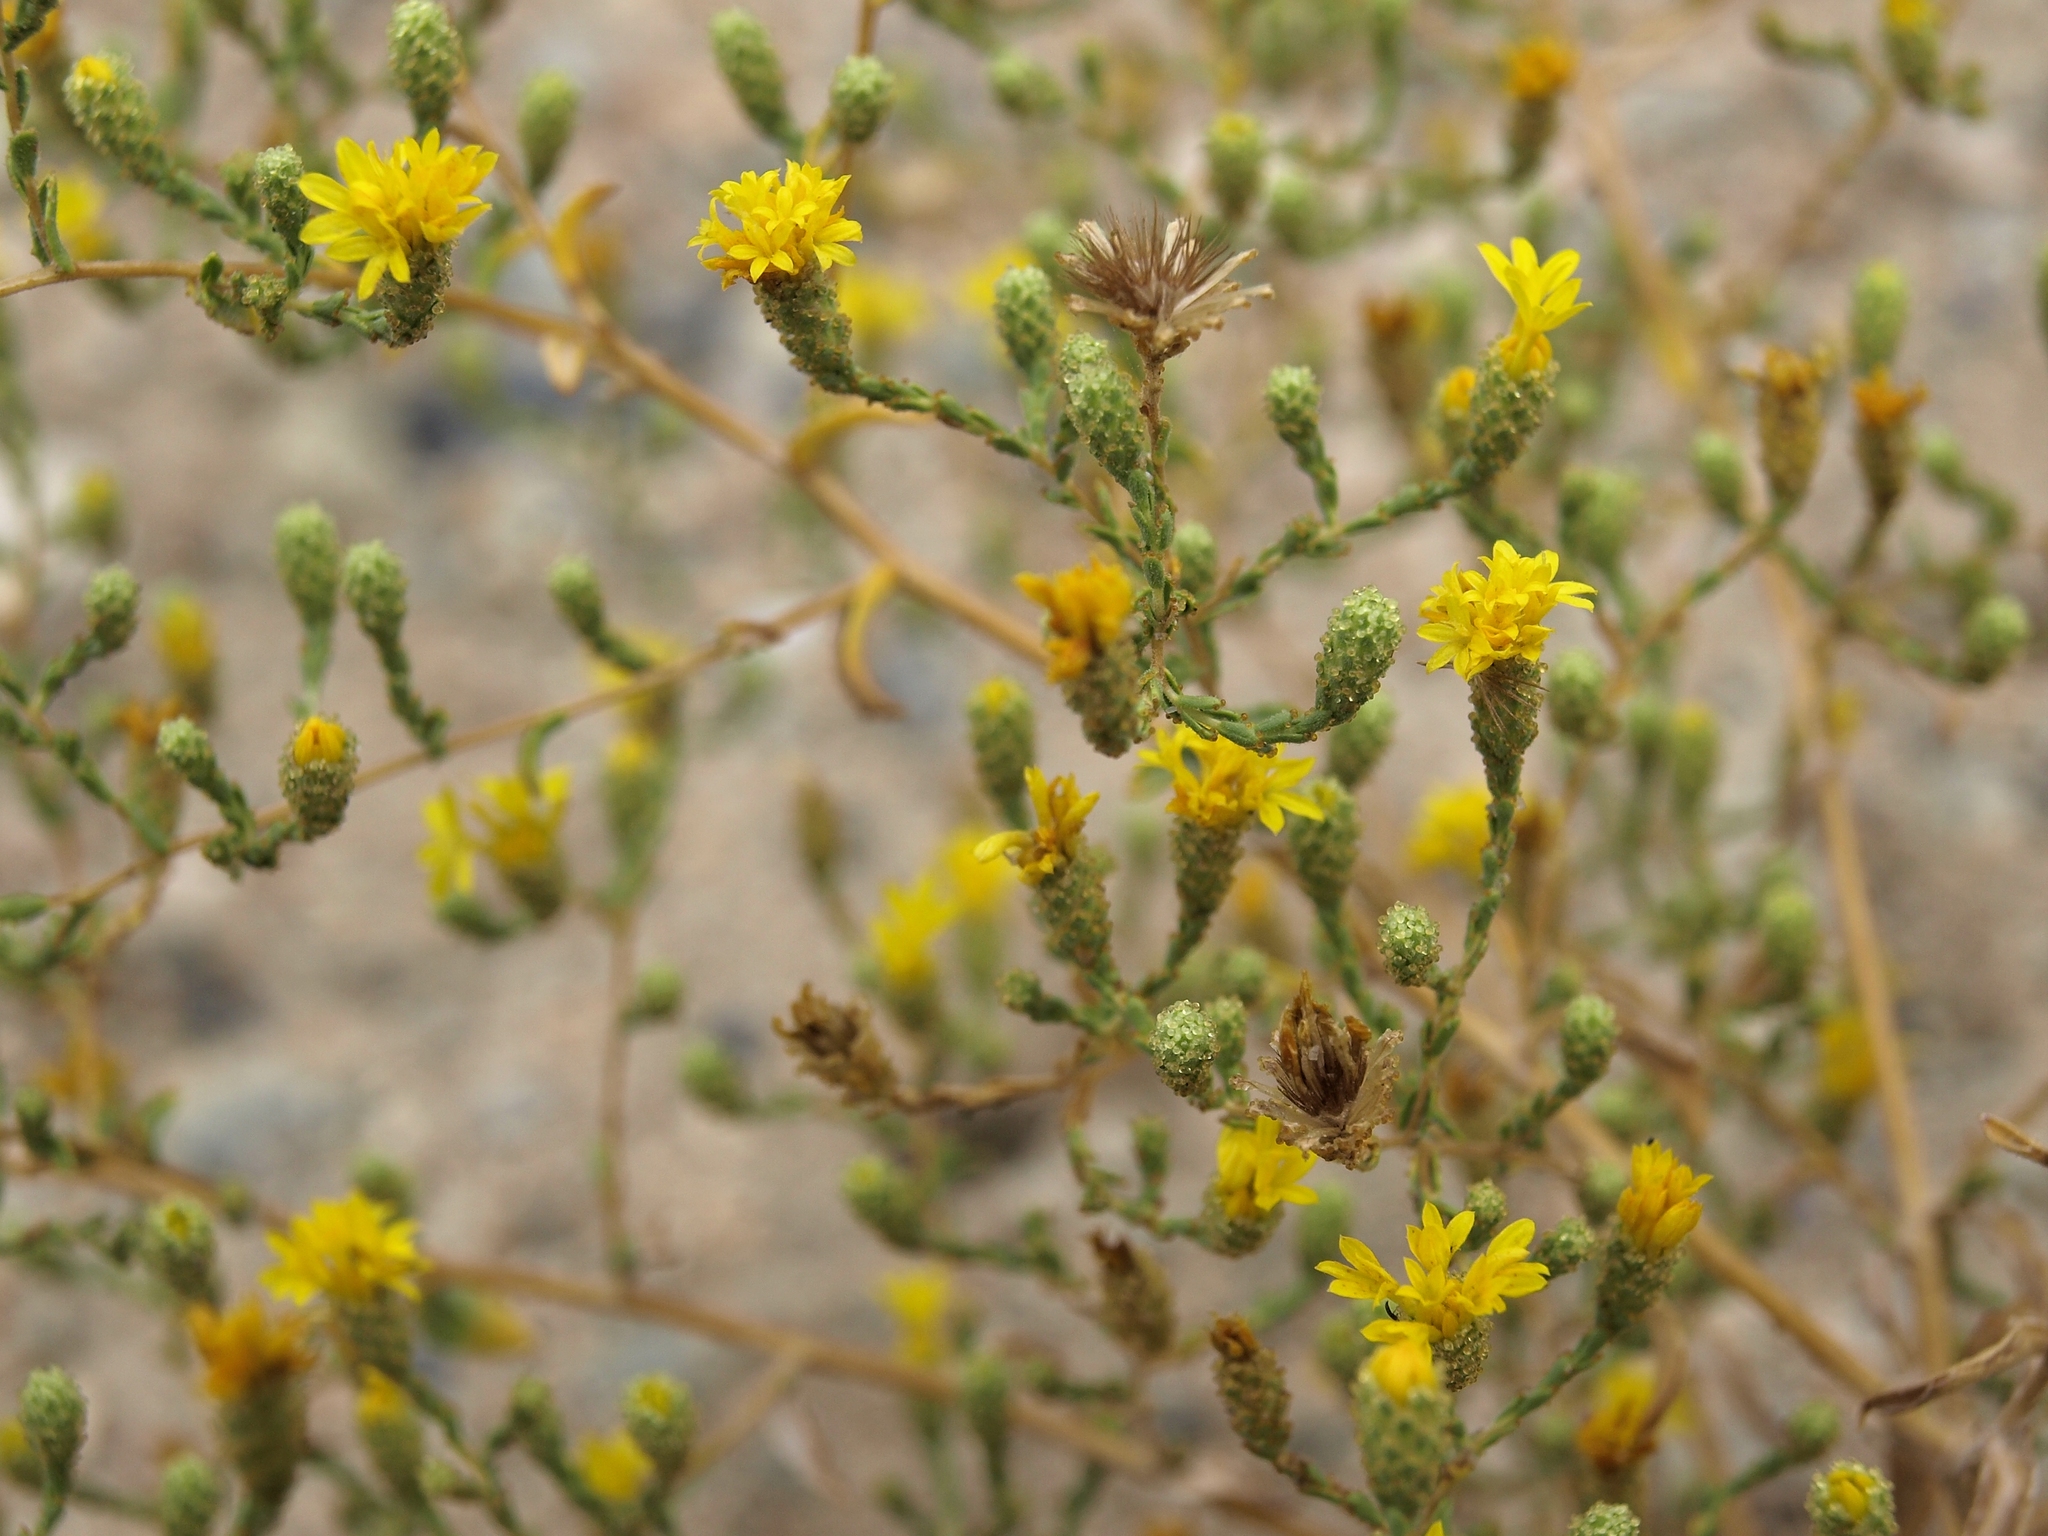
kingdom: Plantae
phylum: Tracheophyta
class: Magnoliopsida
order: Asterales
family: Asteraceae
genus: Lessingia
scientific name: Lessingia glandulifera
